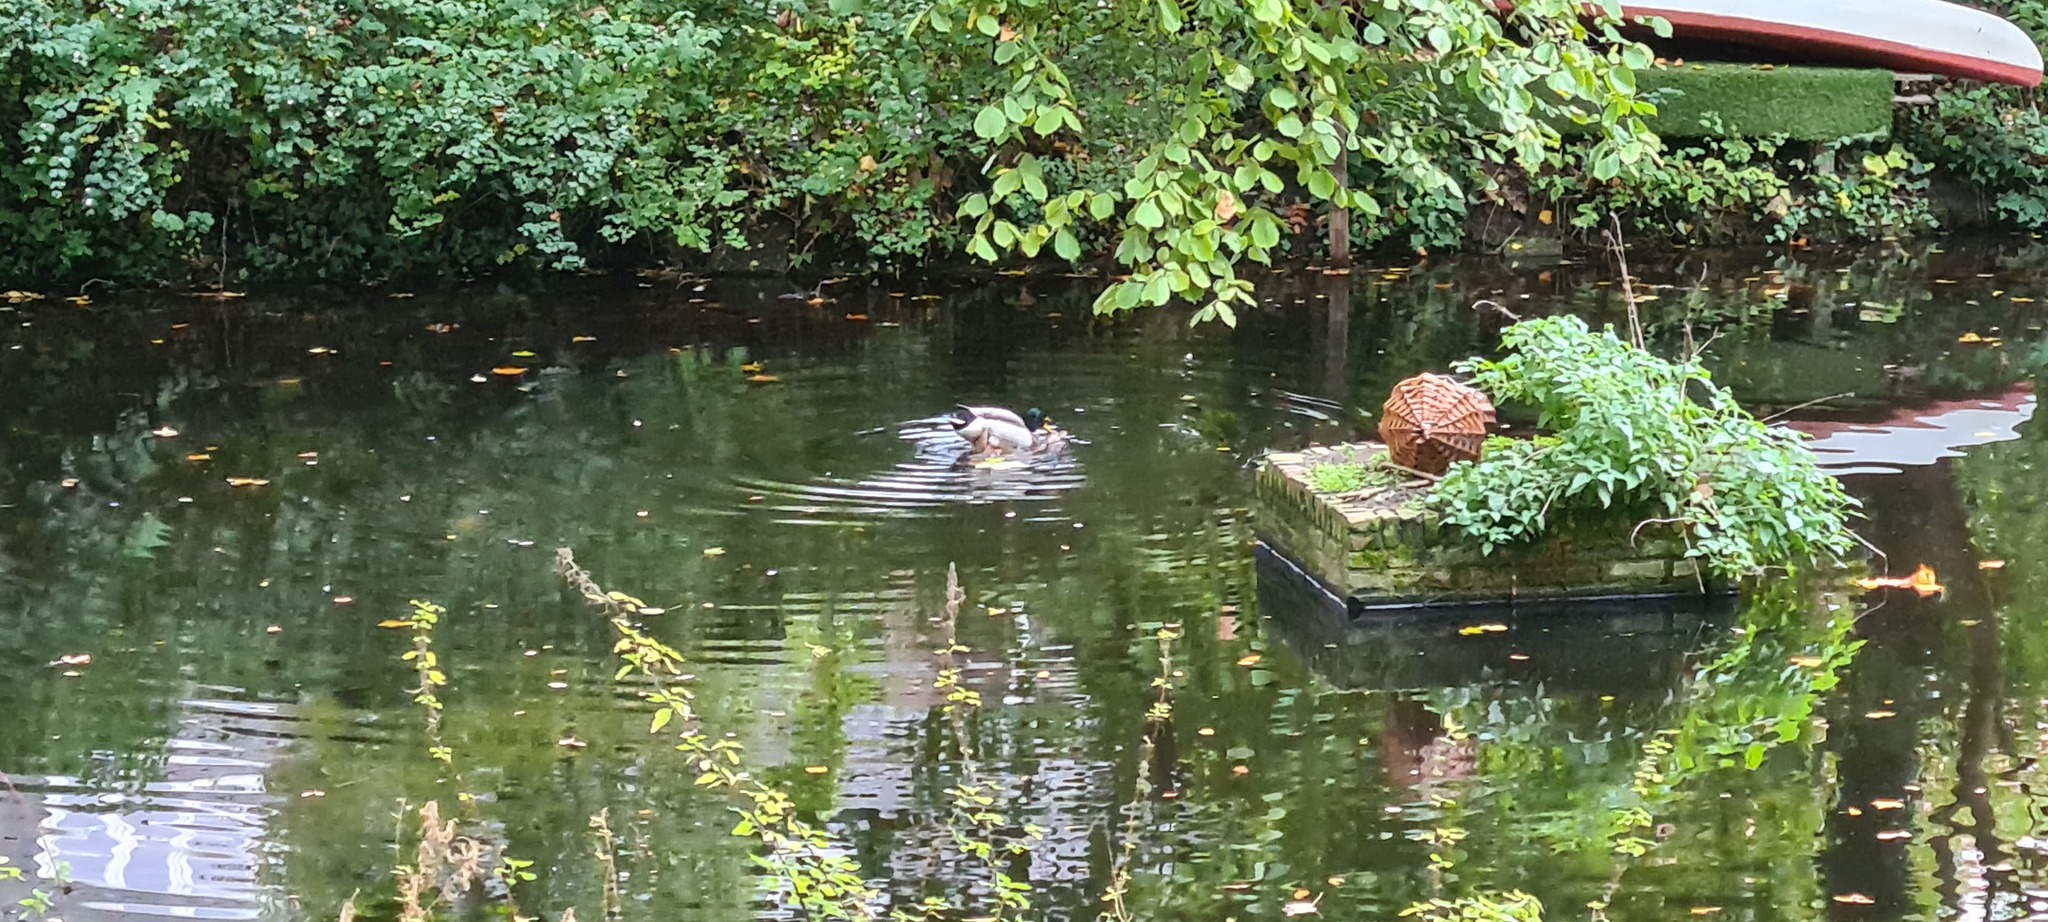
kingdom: Animalia
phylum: Chordata
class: Aves
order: Anseriformes
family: Anatidae
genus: Anas
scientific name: Anas platyrhynchos
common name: Mallard
